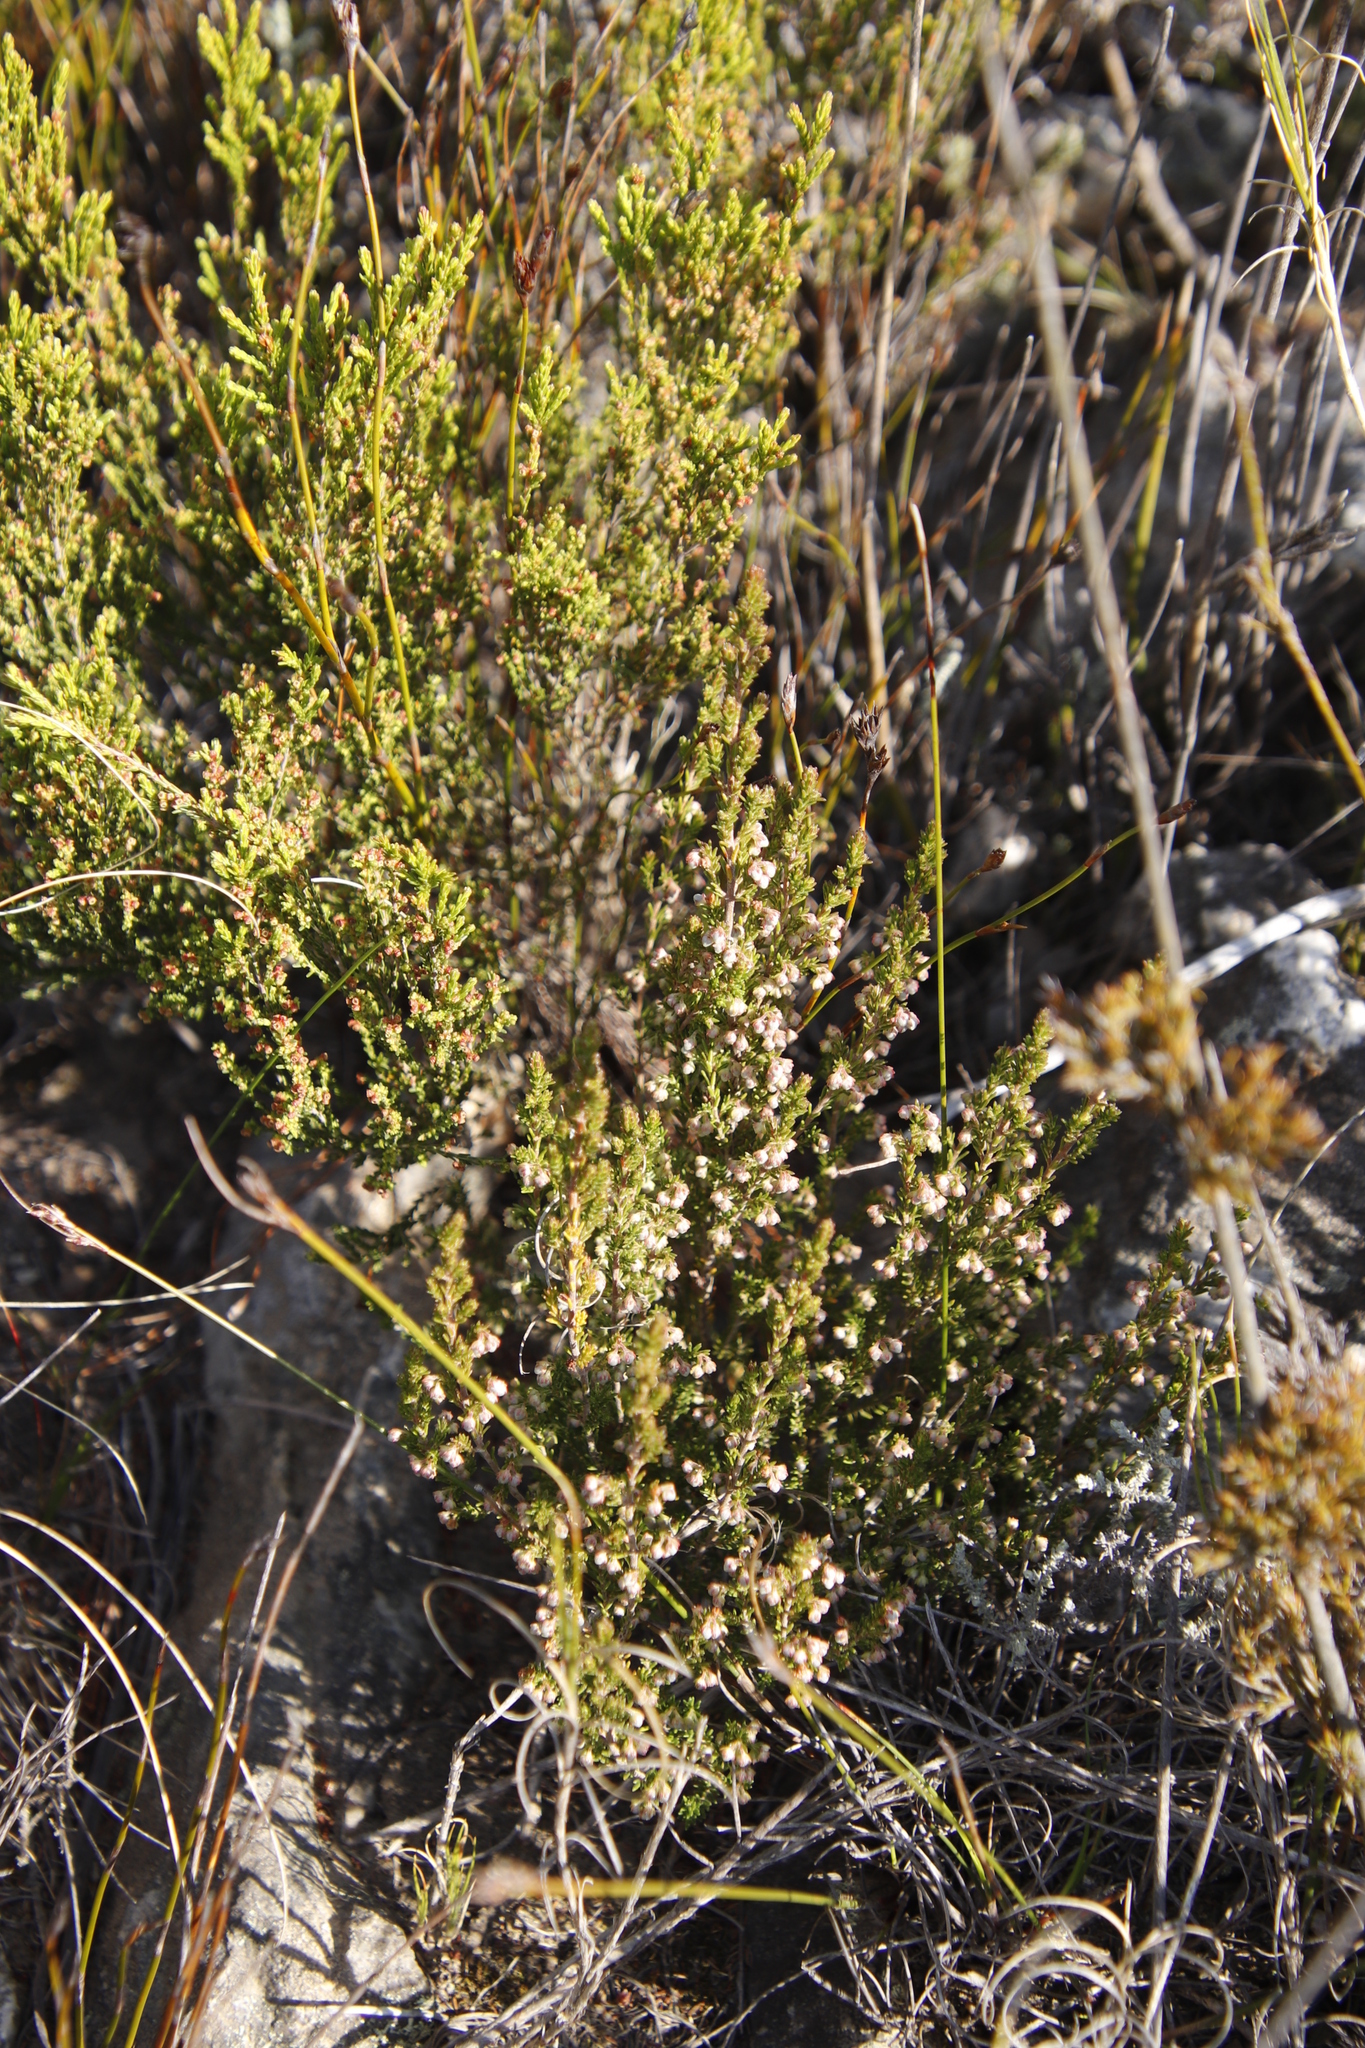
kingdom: Plantae
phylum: Tracheophyta
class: Magnoliopsida
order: Ericales
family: Ericaceae
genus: Erica
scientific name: Erica fimbriata
